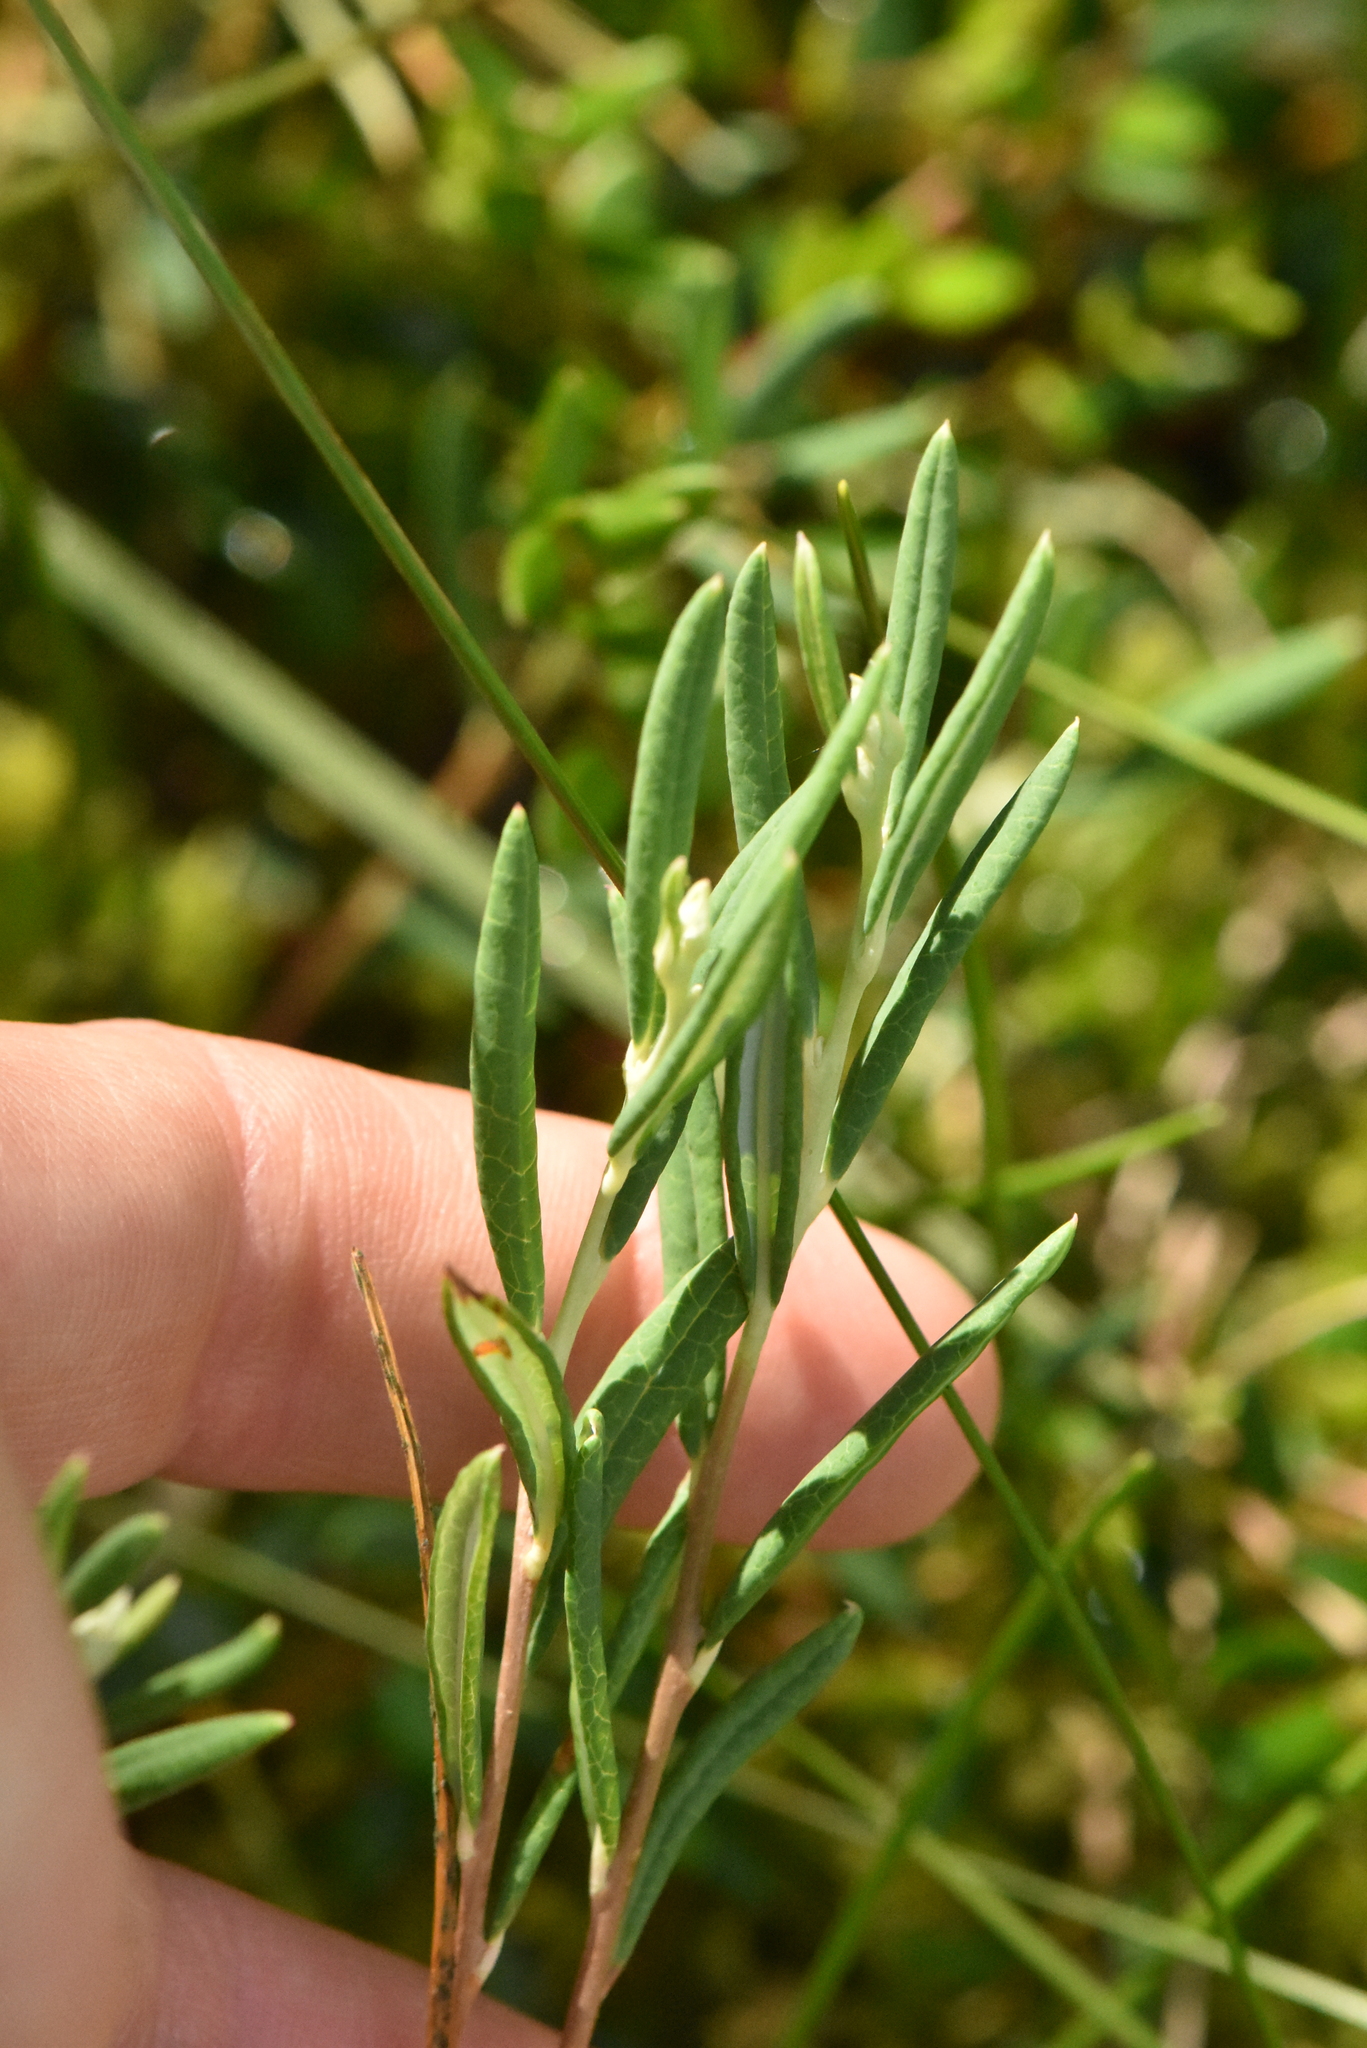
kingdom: Plantae
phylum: Tracheophyta
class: Magnoliopsida
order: Ericales
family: Ericaceae
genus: Andromeda
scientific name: Andromeda polifolia
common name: Bog-rosemary
